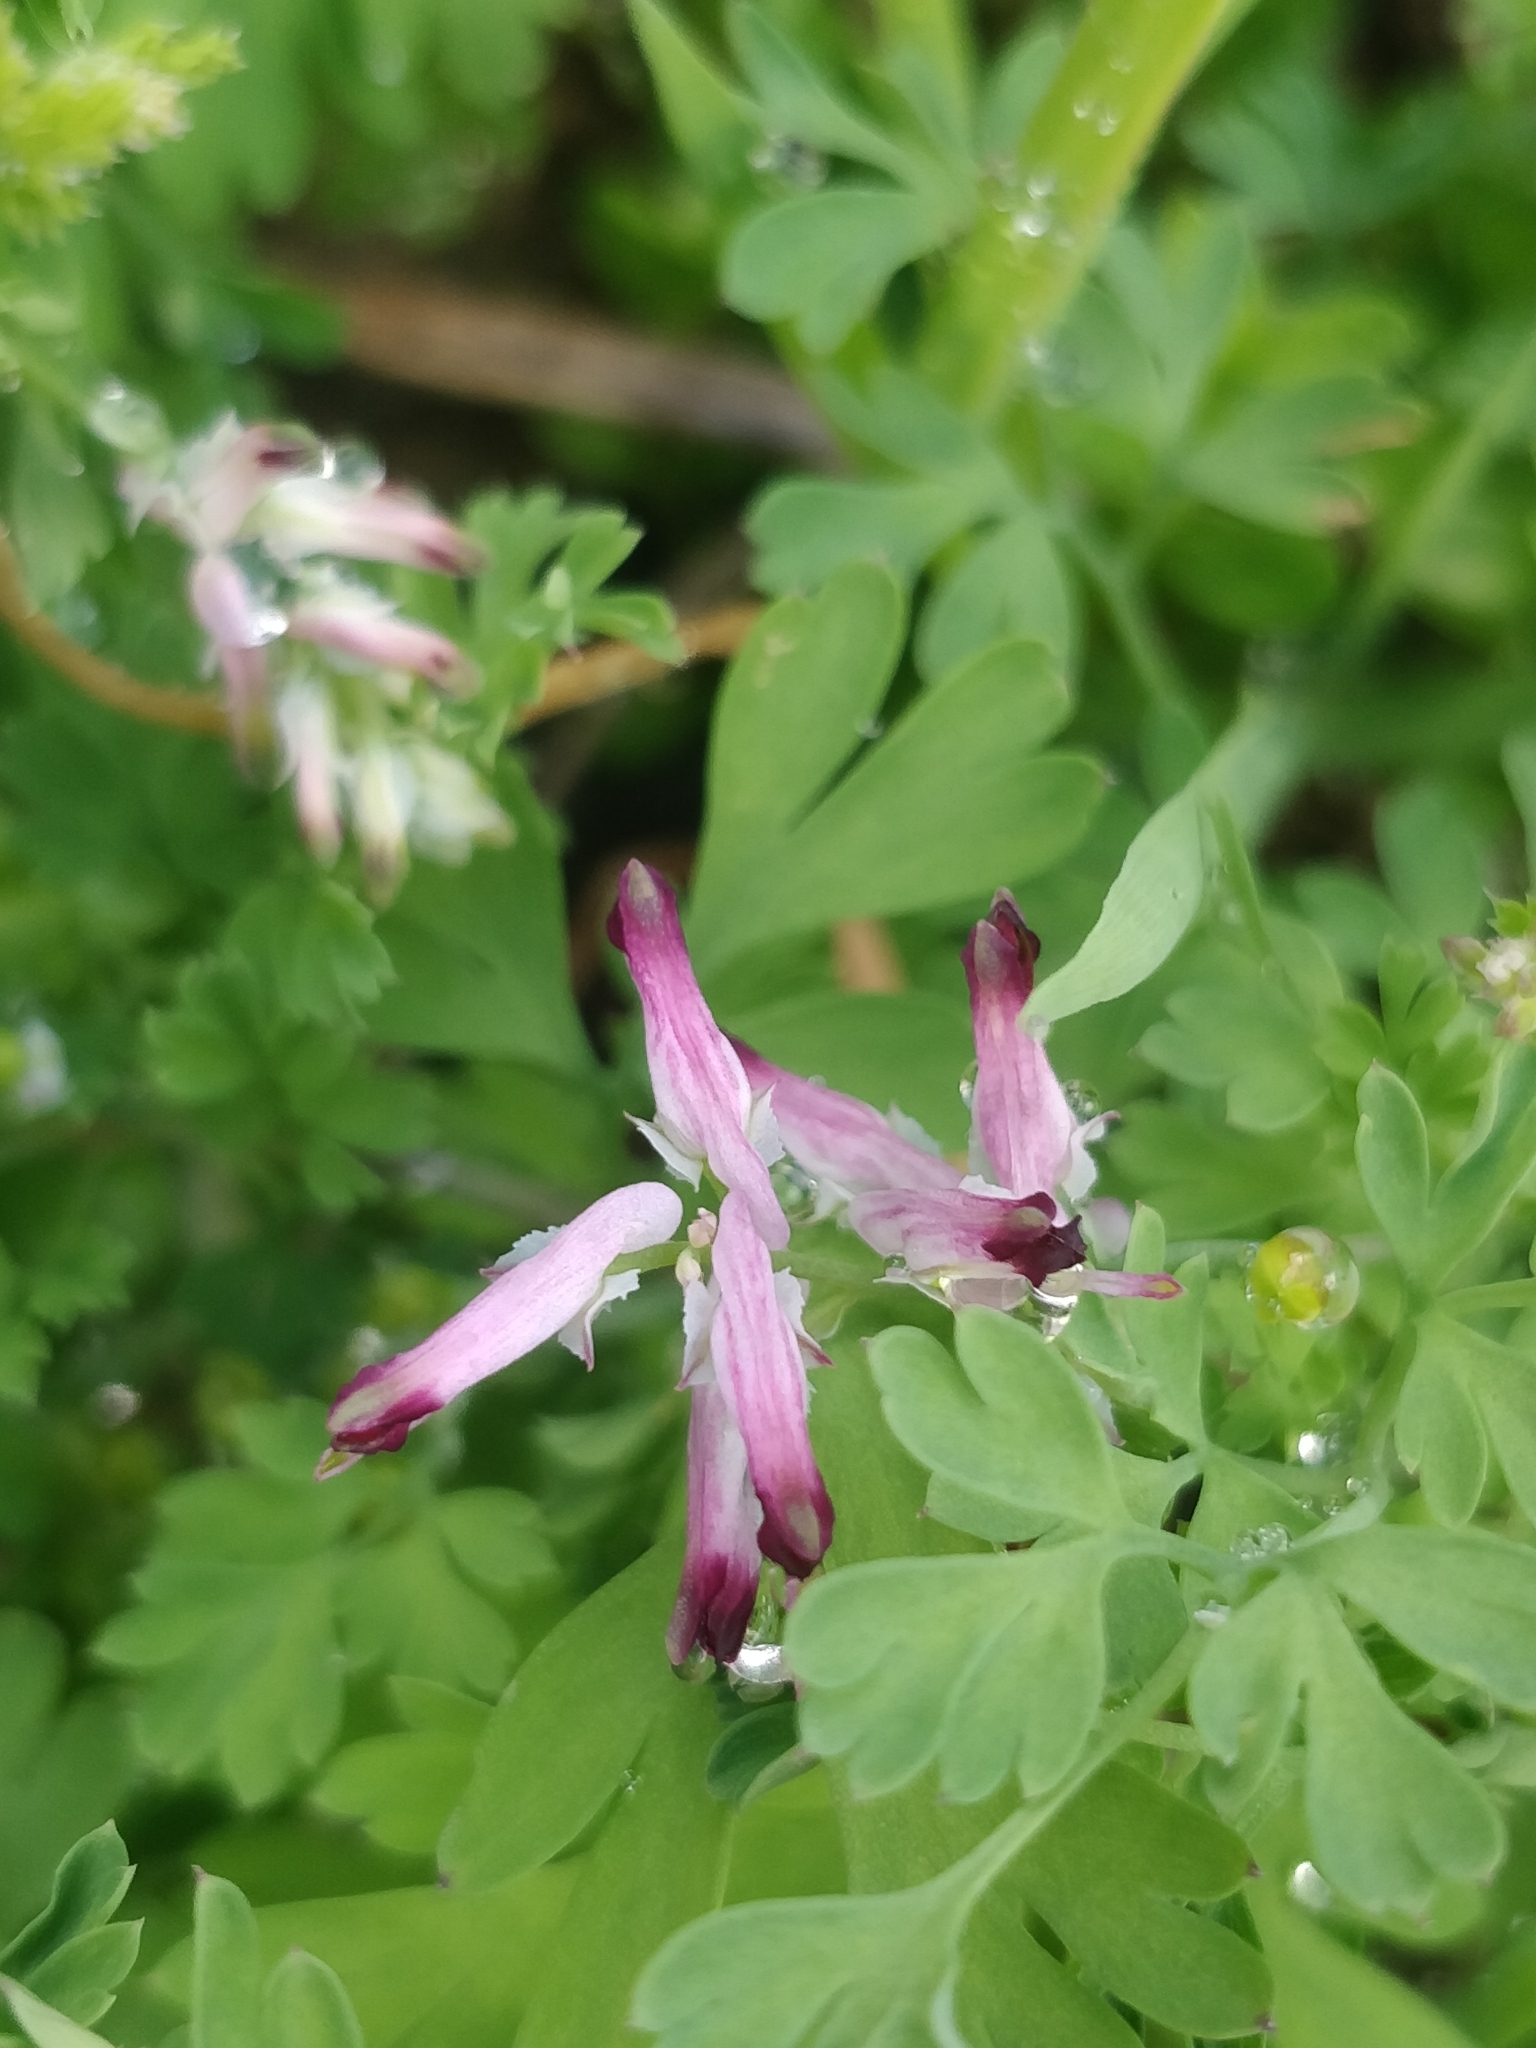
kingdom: Plantae
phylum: Tracheophyta
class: Magnoliopsida
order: Ranunculales
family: Papaveraceae
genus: Fumaria
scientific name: Fumaria muralis
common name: Common ramping-fumitory
